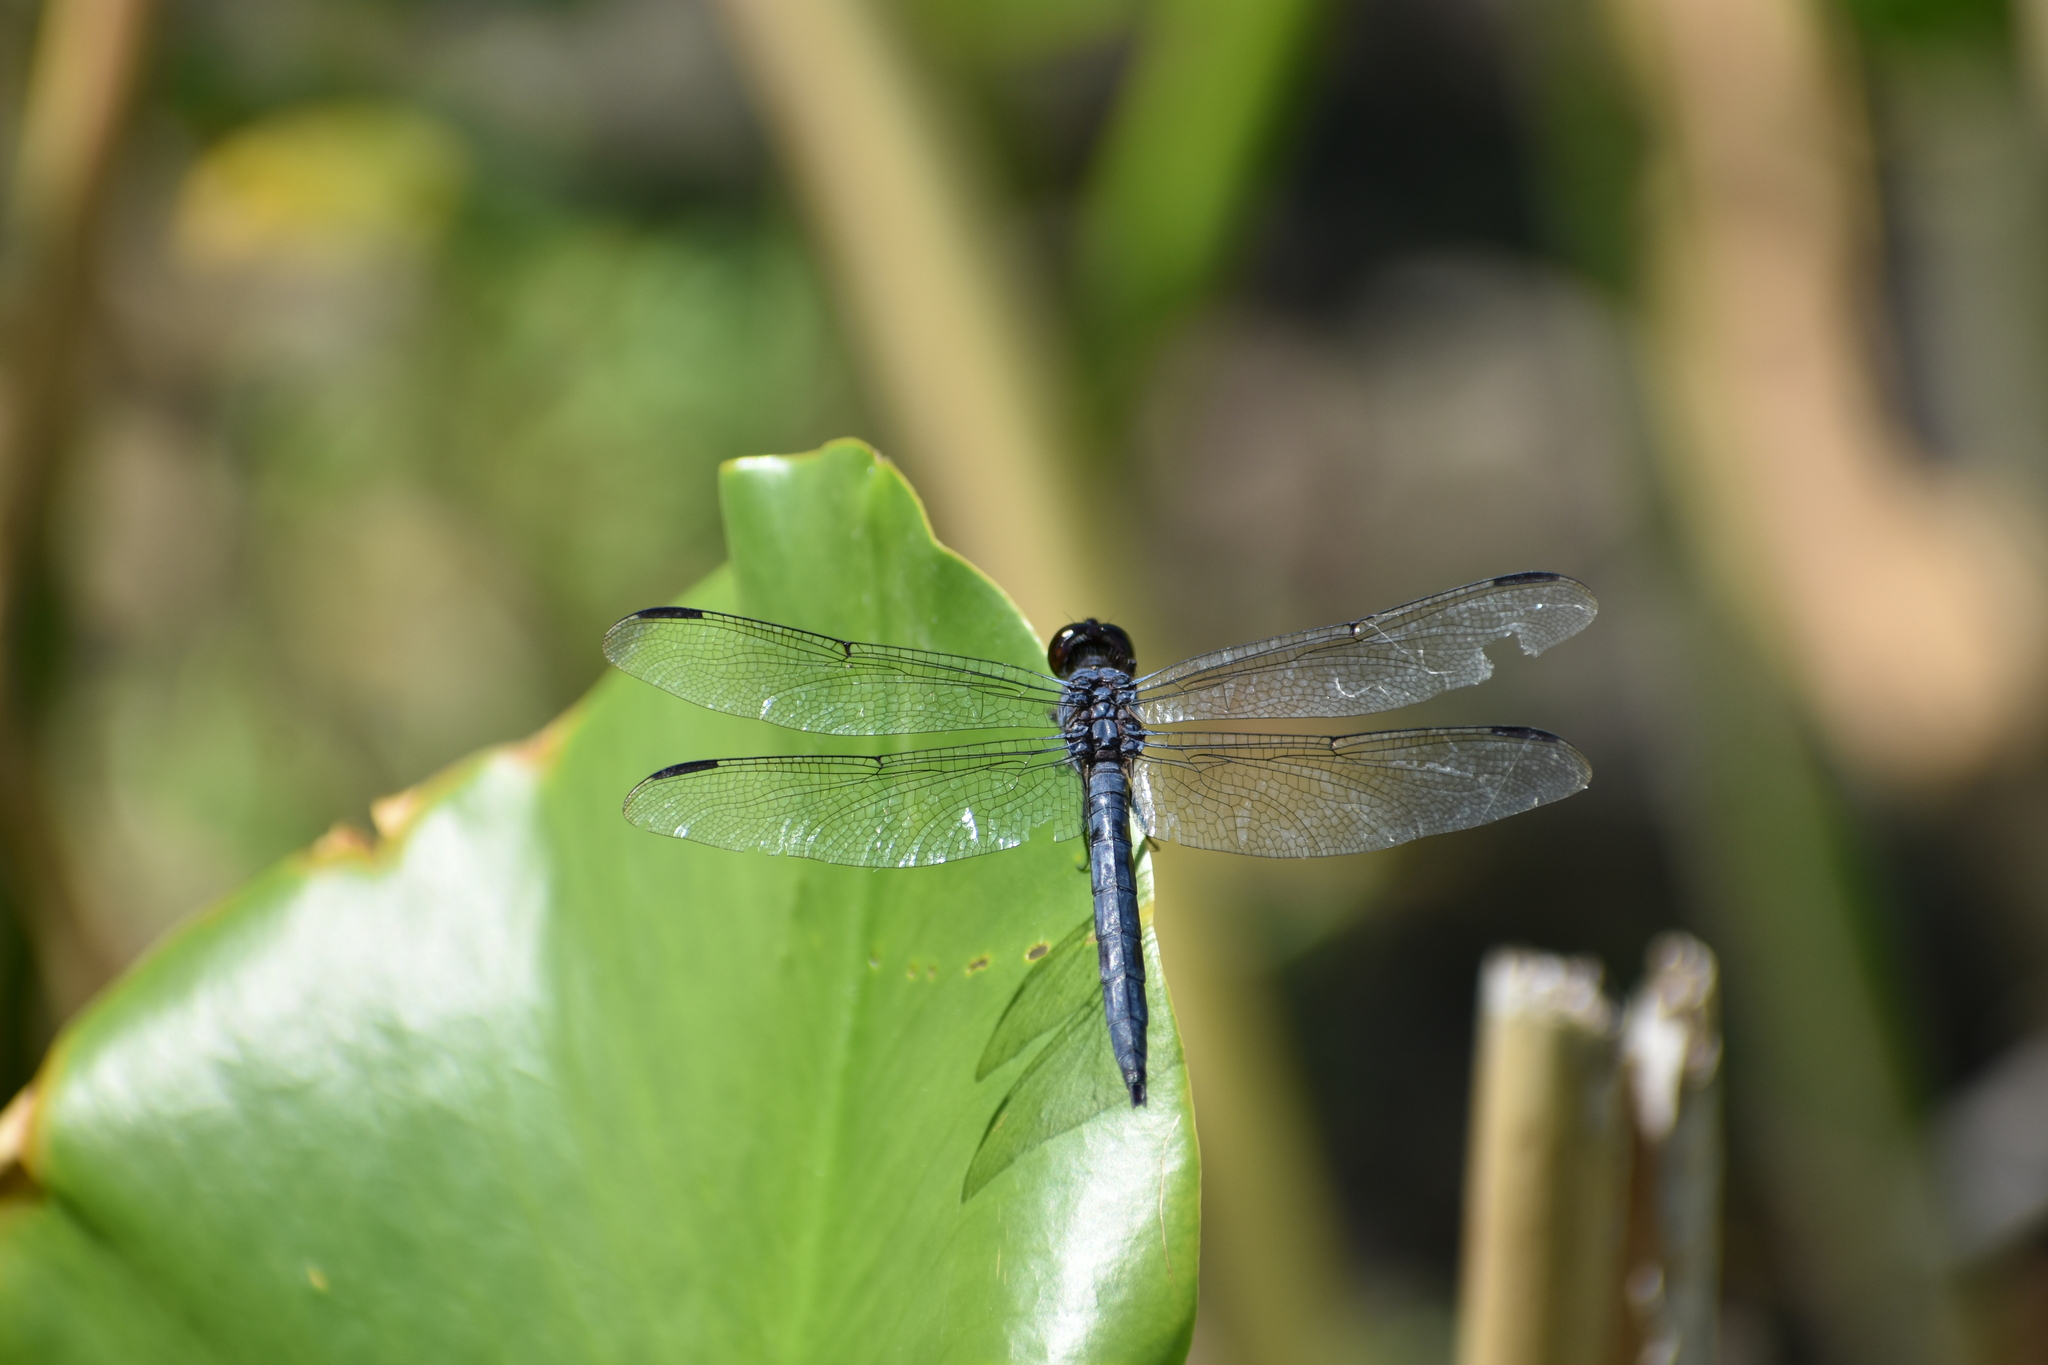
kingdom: Animalia
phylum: Arthropoda
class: Insecta
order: Odonata
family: Libellulidae
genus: Libellula
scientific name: Libellula incesta
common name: Slaty skimmer
